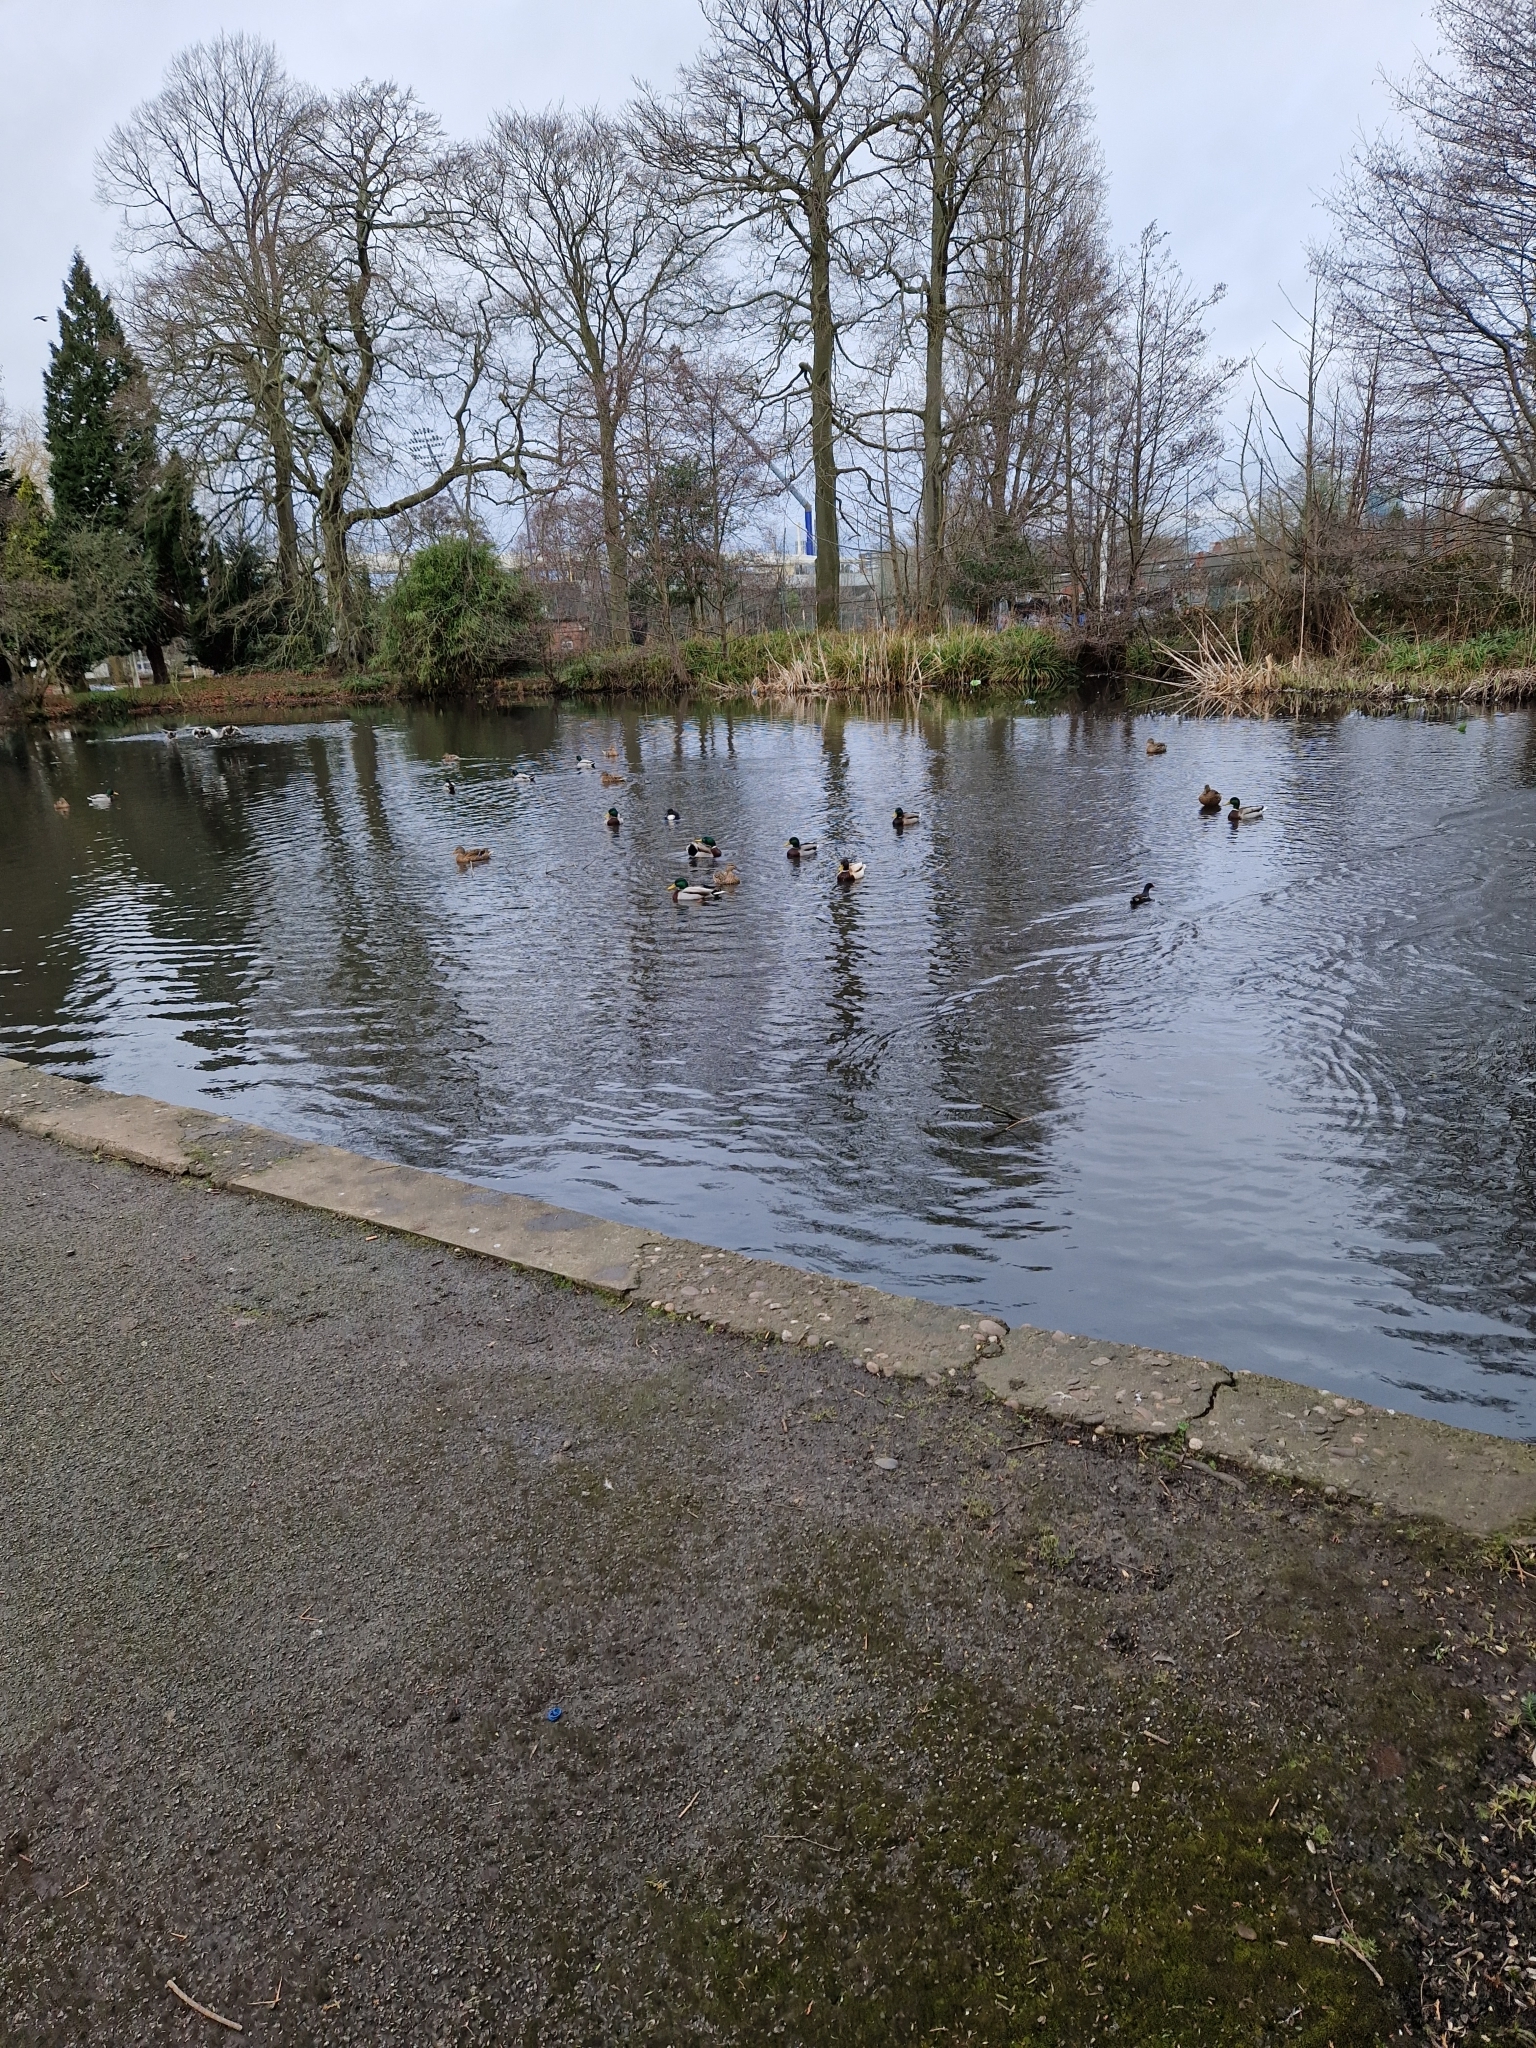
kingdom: Animalia
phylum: Chordata
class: Aves
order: Anseriformes
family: Anatidae
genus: Anas
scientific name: Anas platyrhynchos
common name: Mallard
